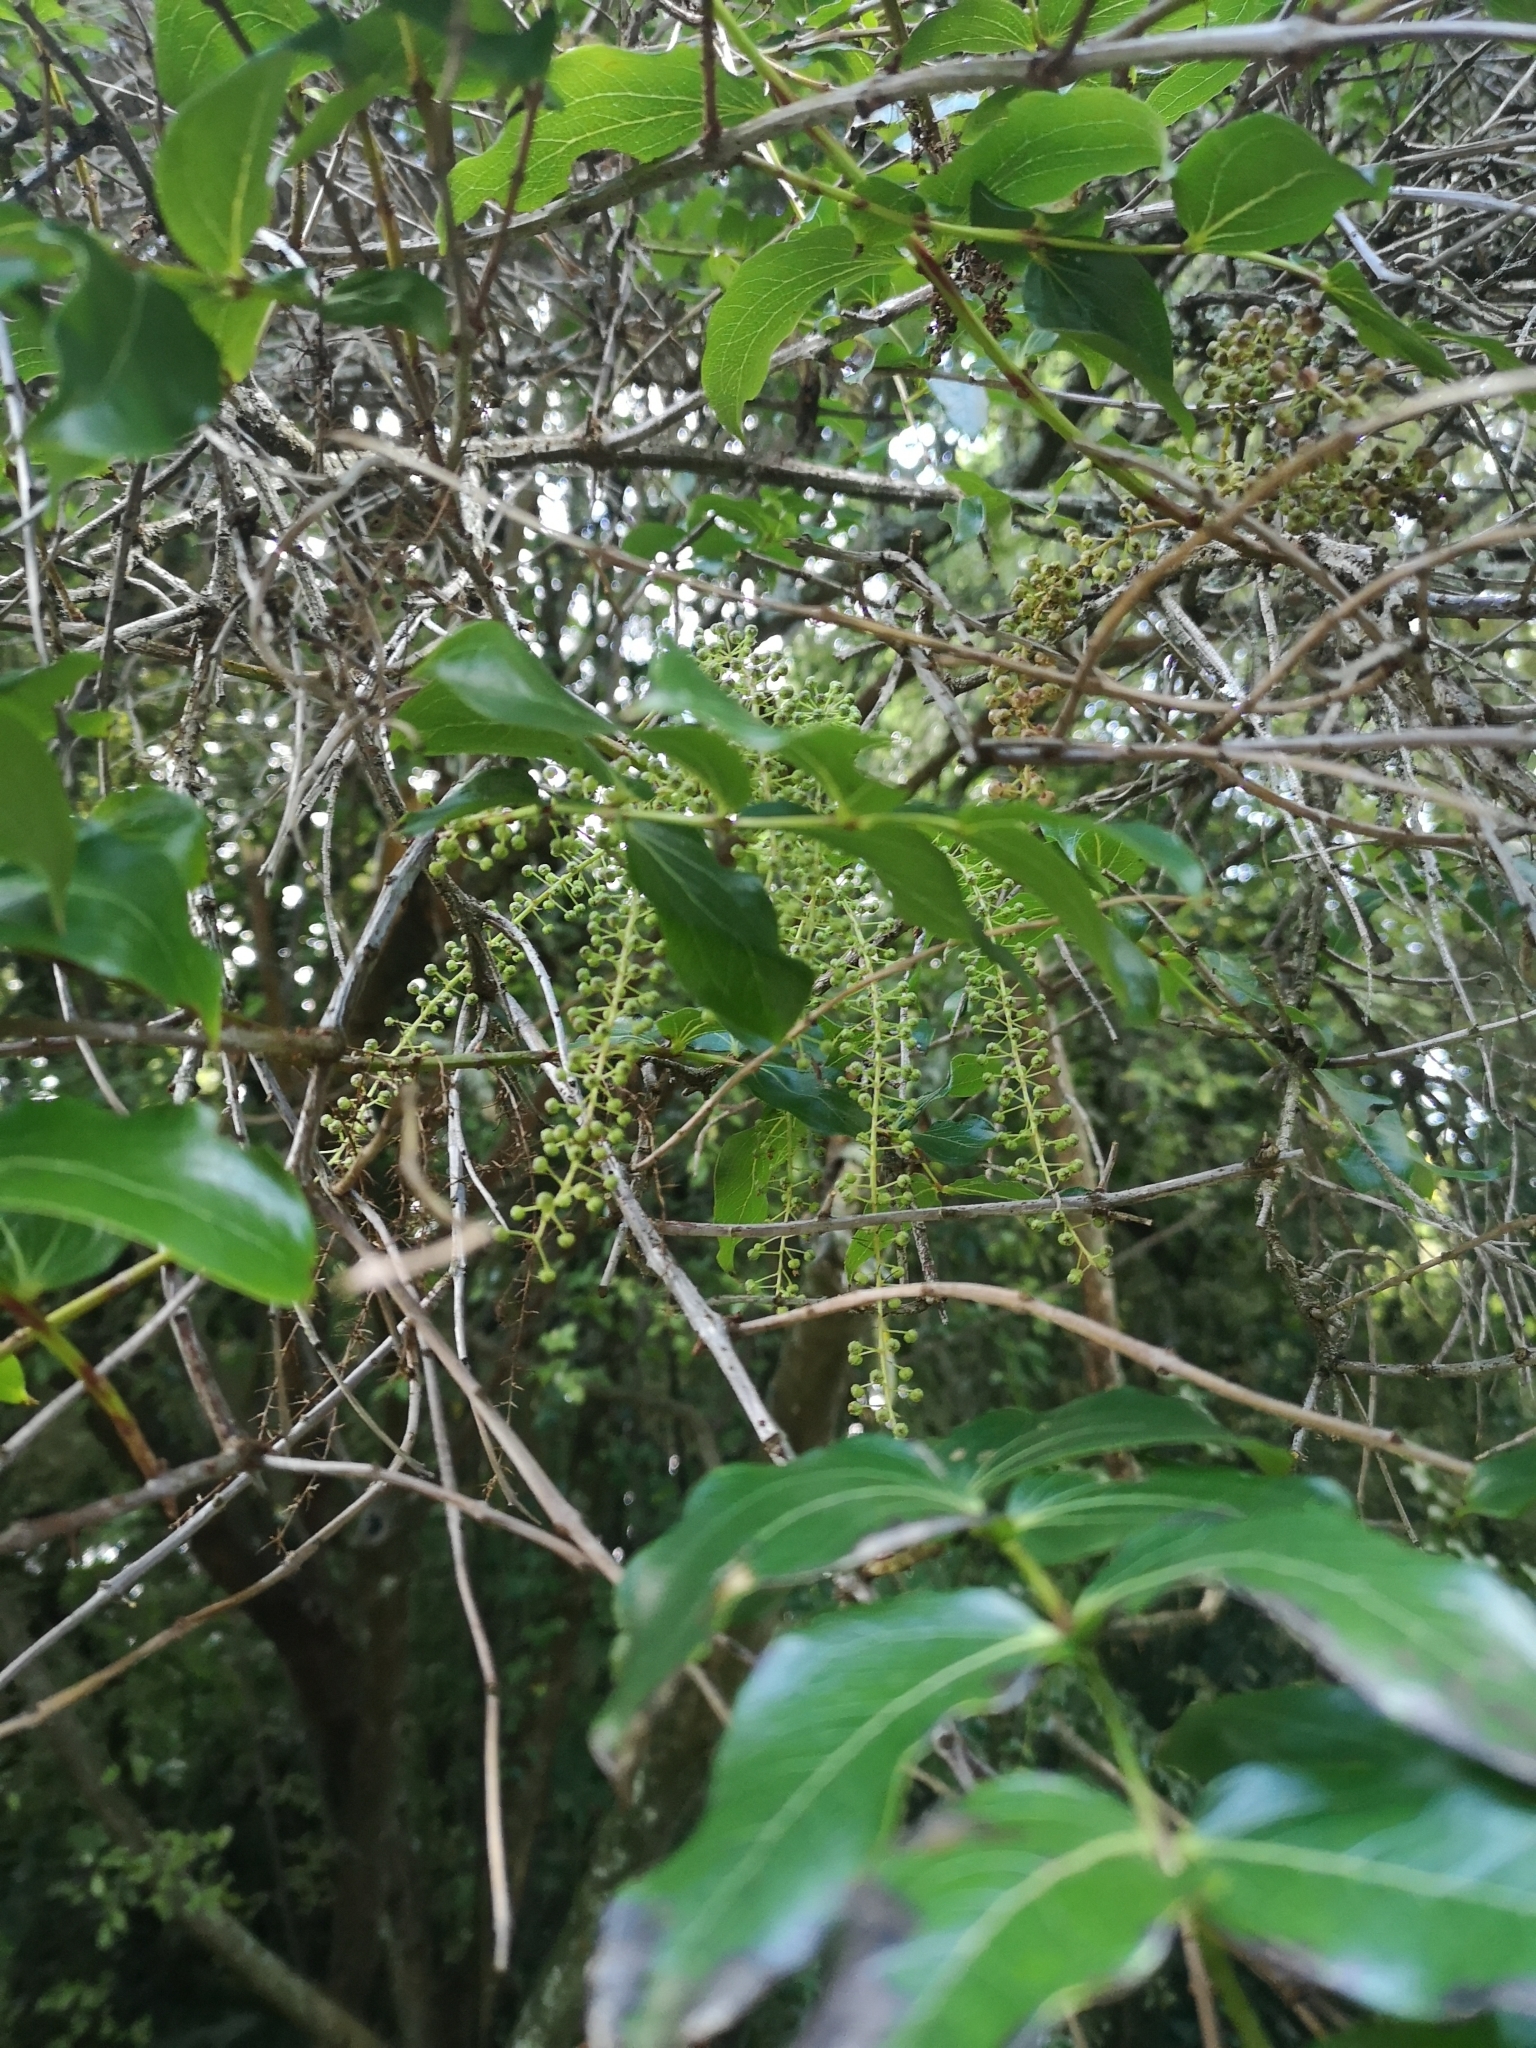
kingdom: Plantae
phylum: Tracheophyta
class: Magnoliopsida
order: Cucurbitales
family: Coriariaceae
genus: Coriaria
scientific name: Coriaria arborea
